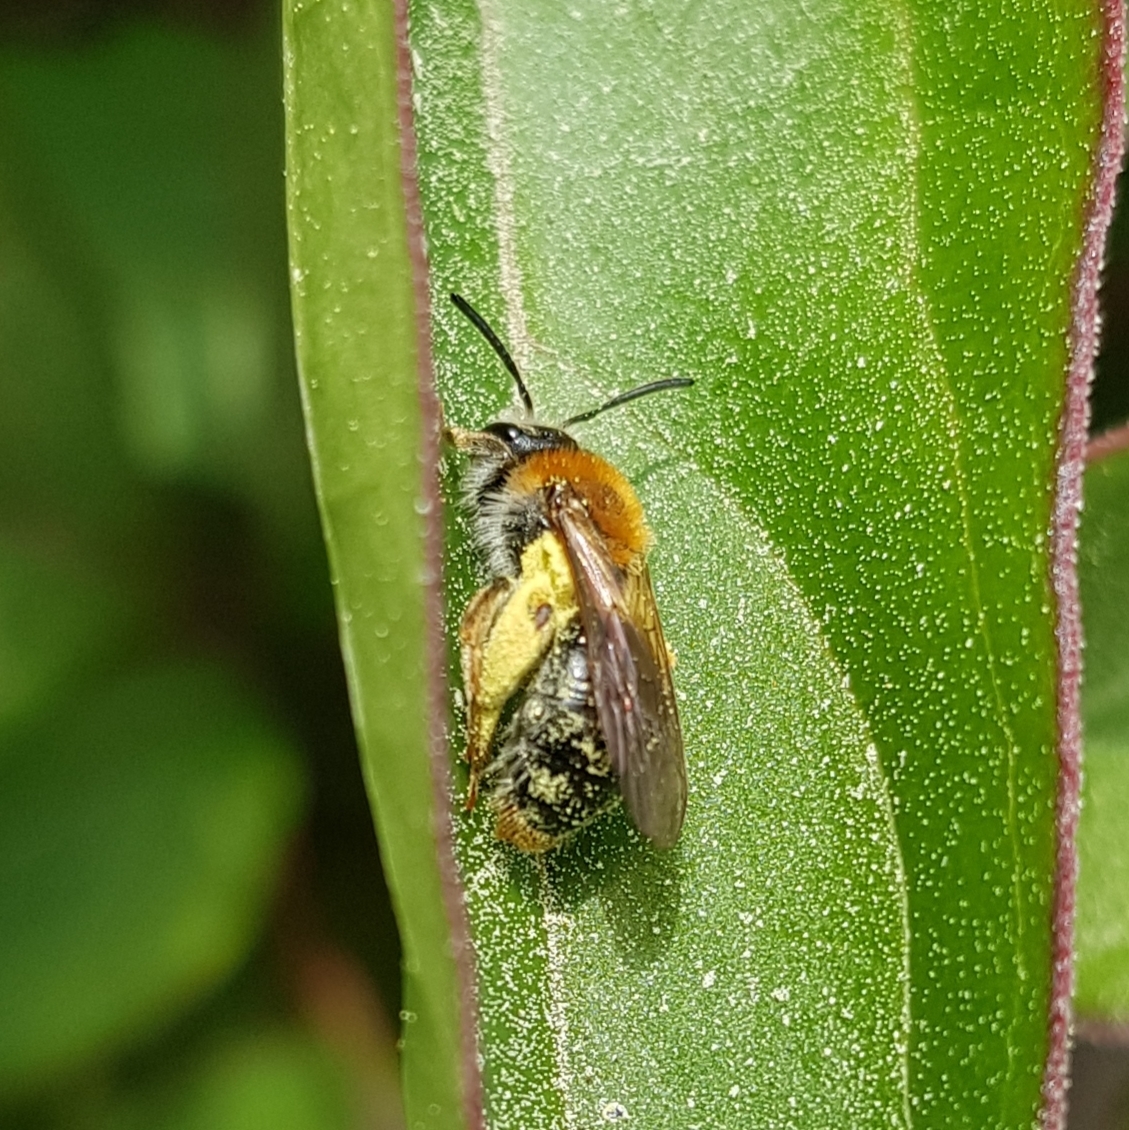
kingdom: Animalia
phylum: Arthropoda
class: Insecta
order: Hymenoptera
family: Andrenidae
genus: Andrena
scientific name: Andrena haemorrhoa
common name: Early mining bee
